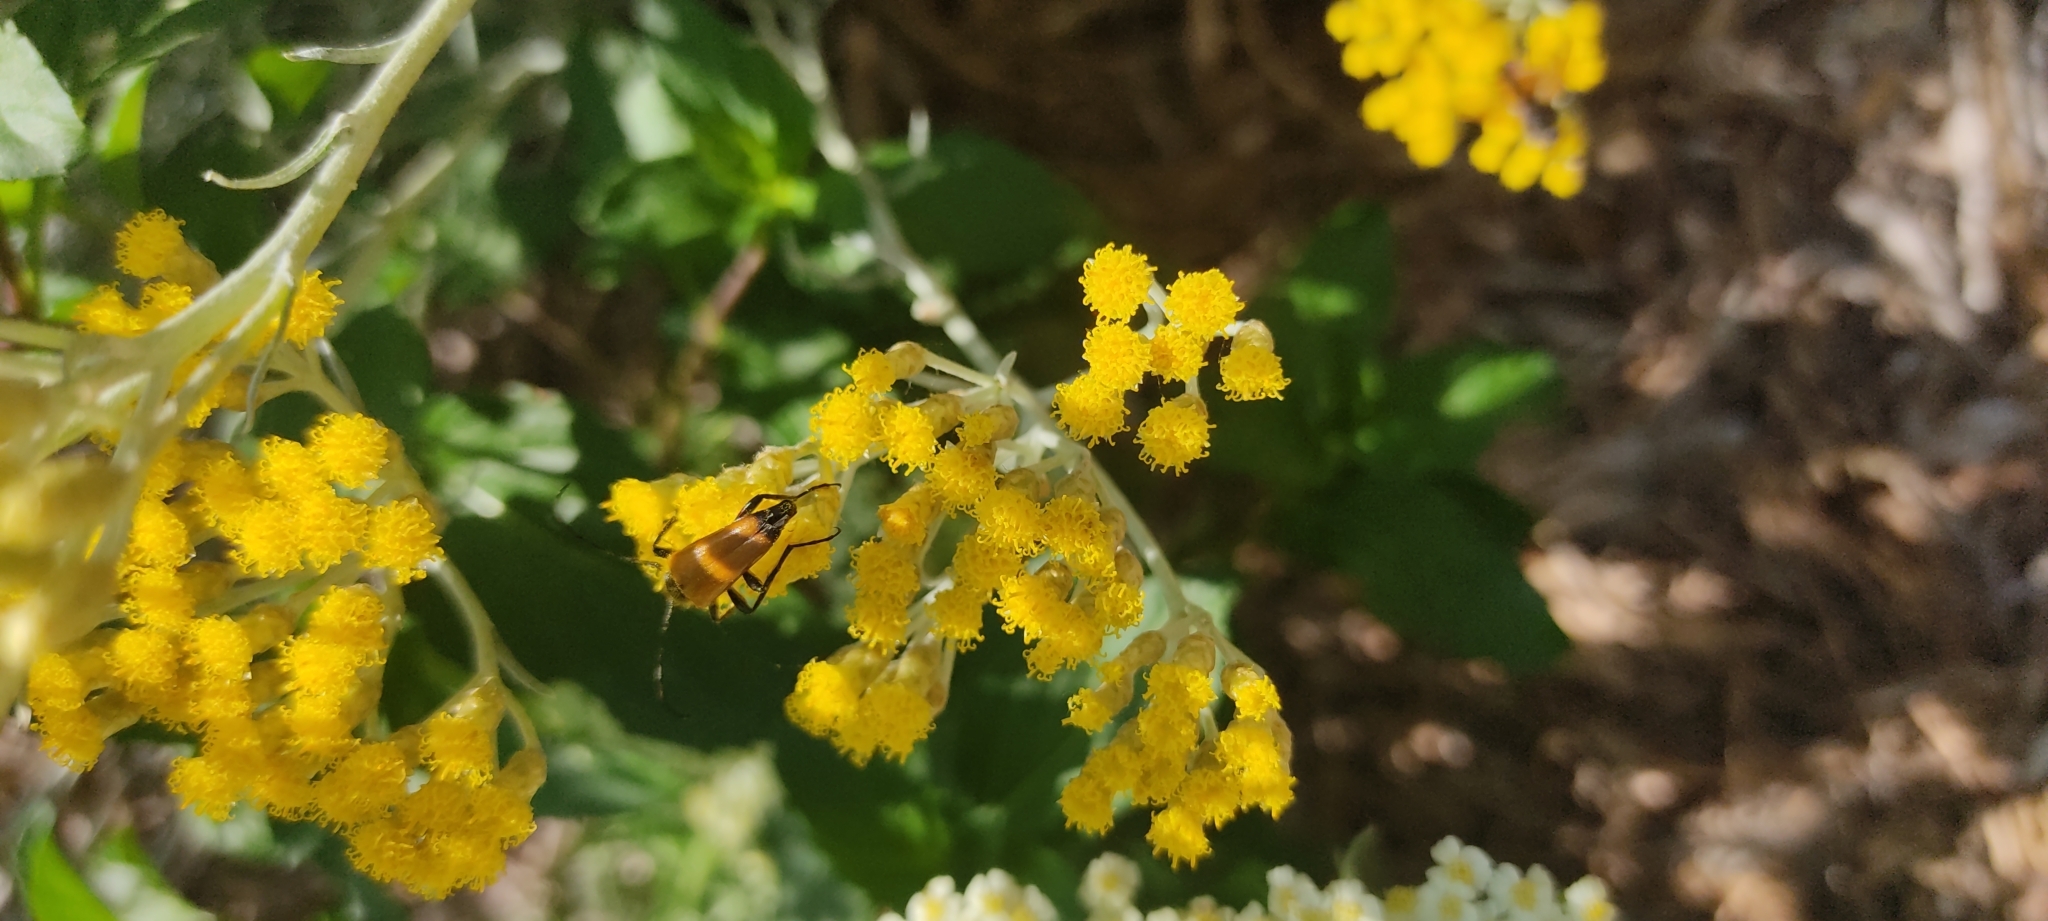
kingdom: Animalia
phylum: Arthropoda
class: Insecta
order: Coleoptera
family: Cerambycidae
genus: Paracorymbia
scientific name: Paracorymbia fulva
